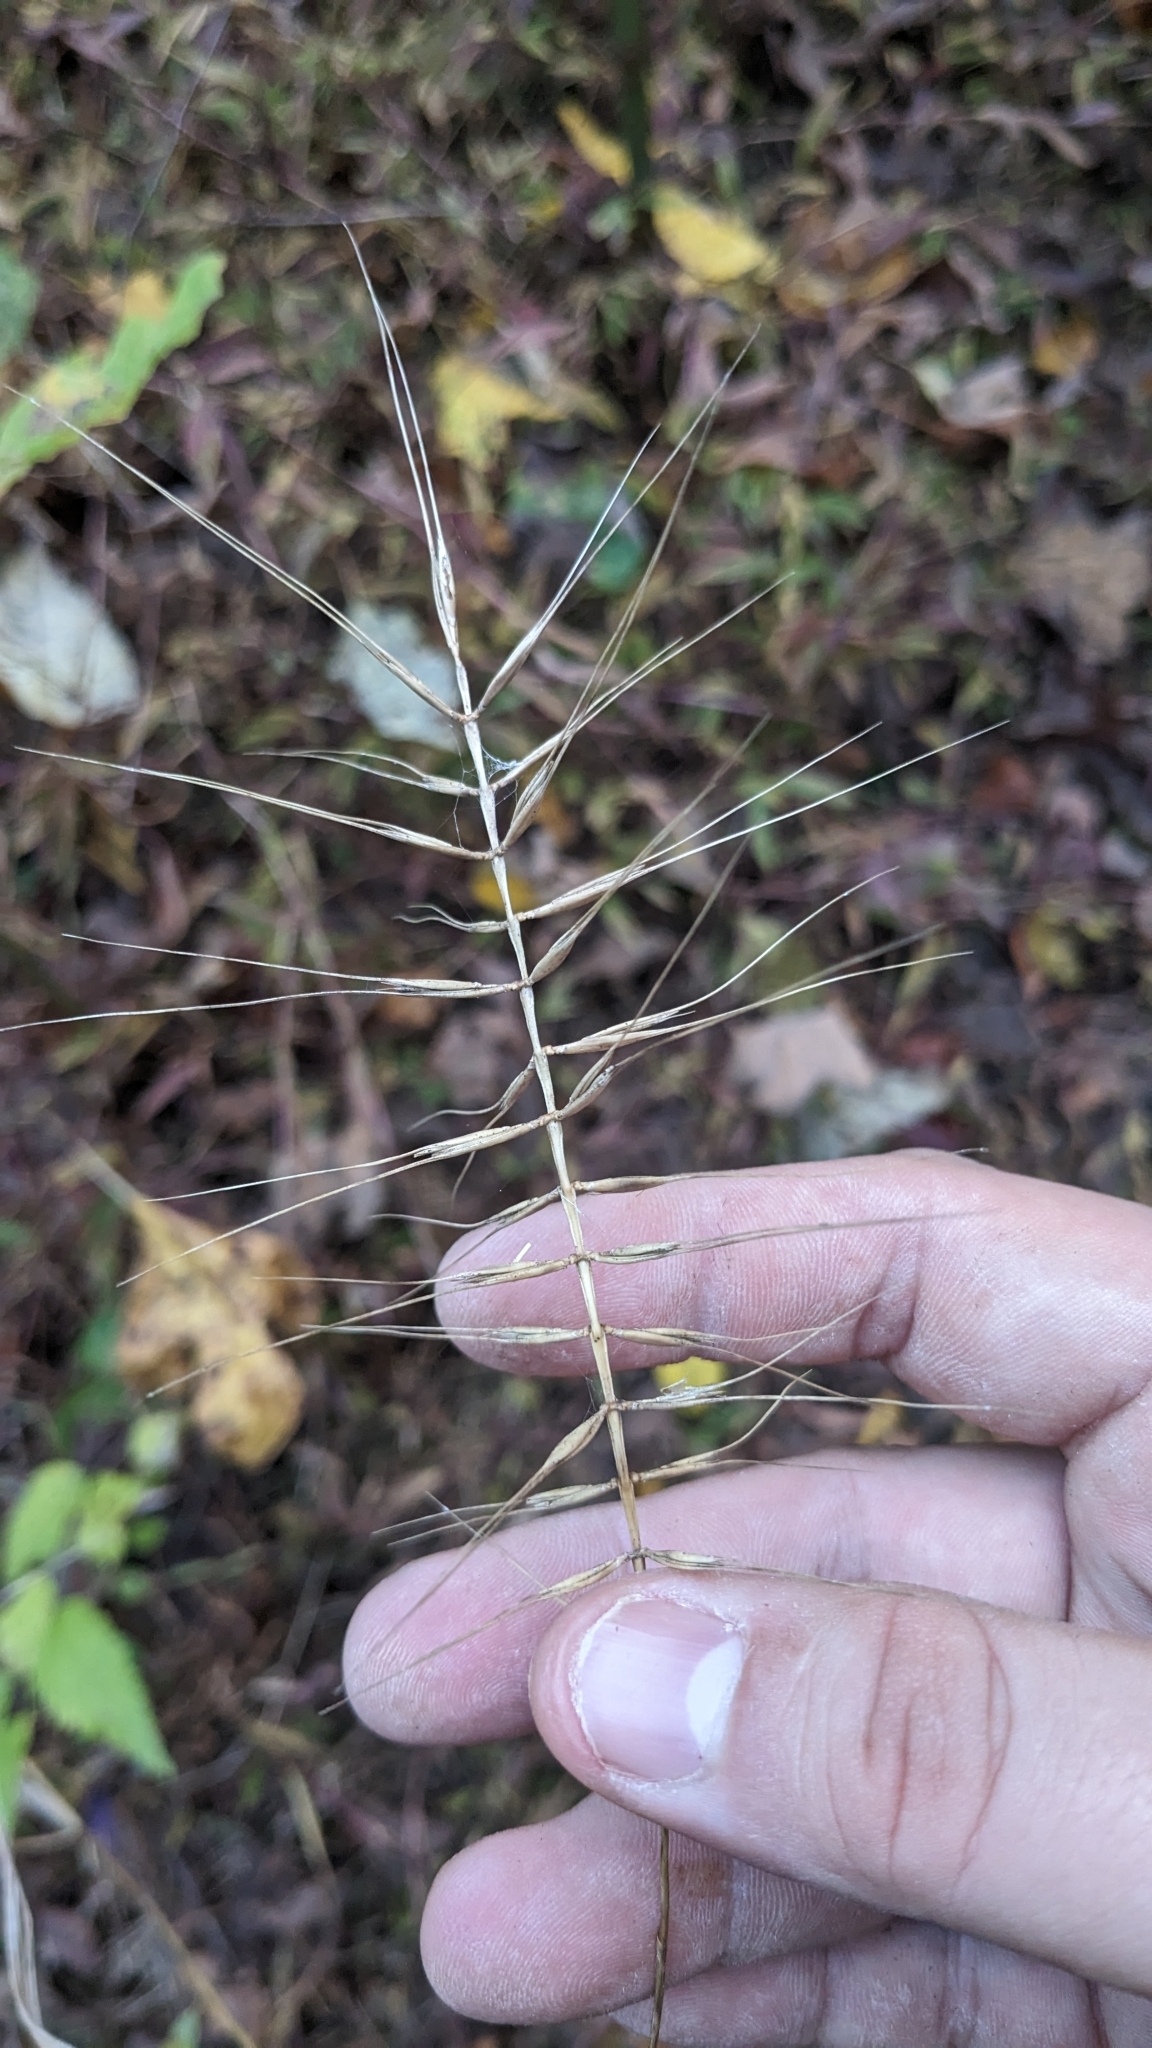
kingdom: Plantae
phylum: Tracheophyta
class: Liliopsida
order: Poales
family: Poaceae
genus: Elymus
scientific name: Elymus hystrix
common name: Bottlebrush grass
